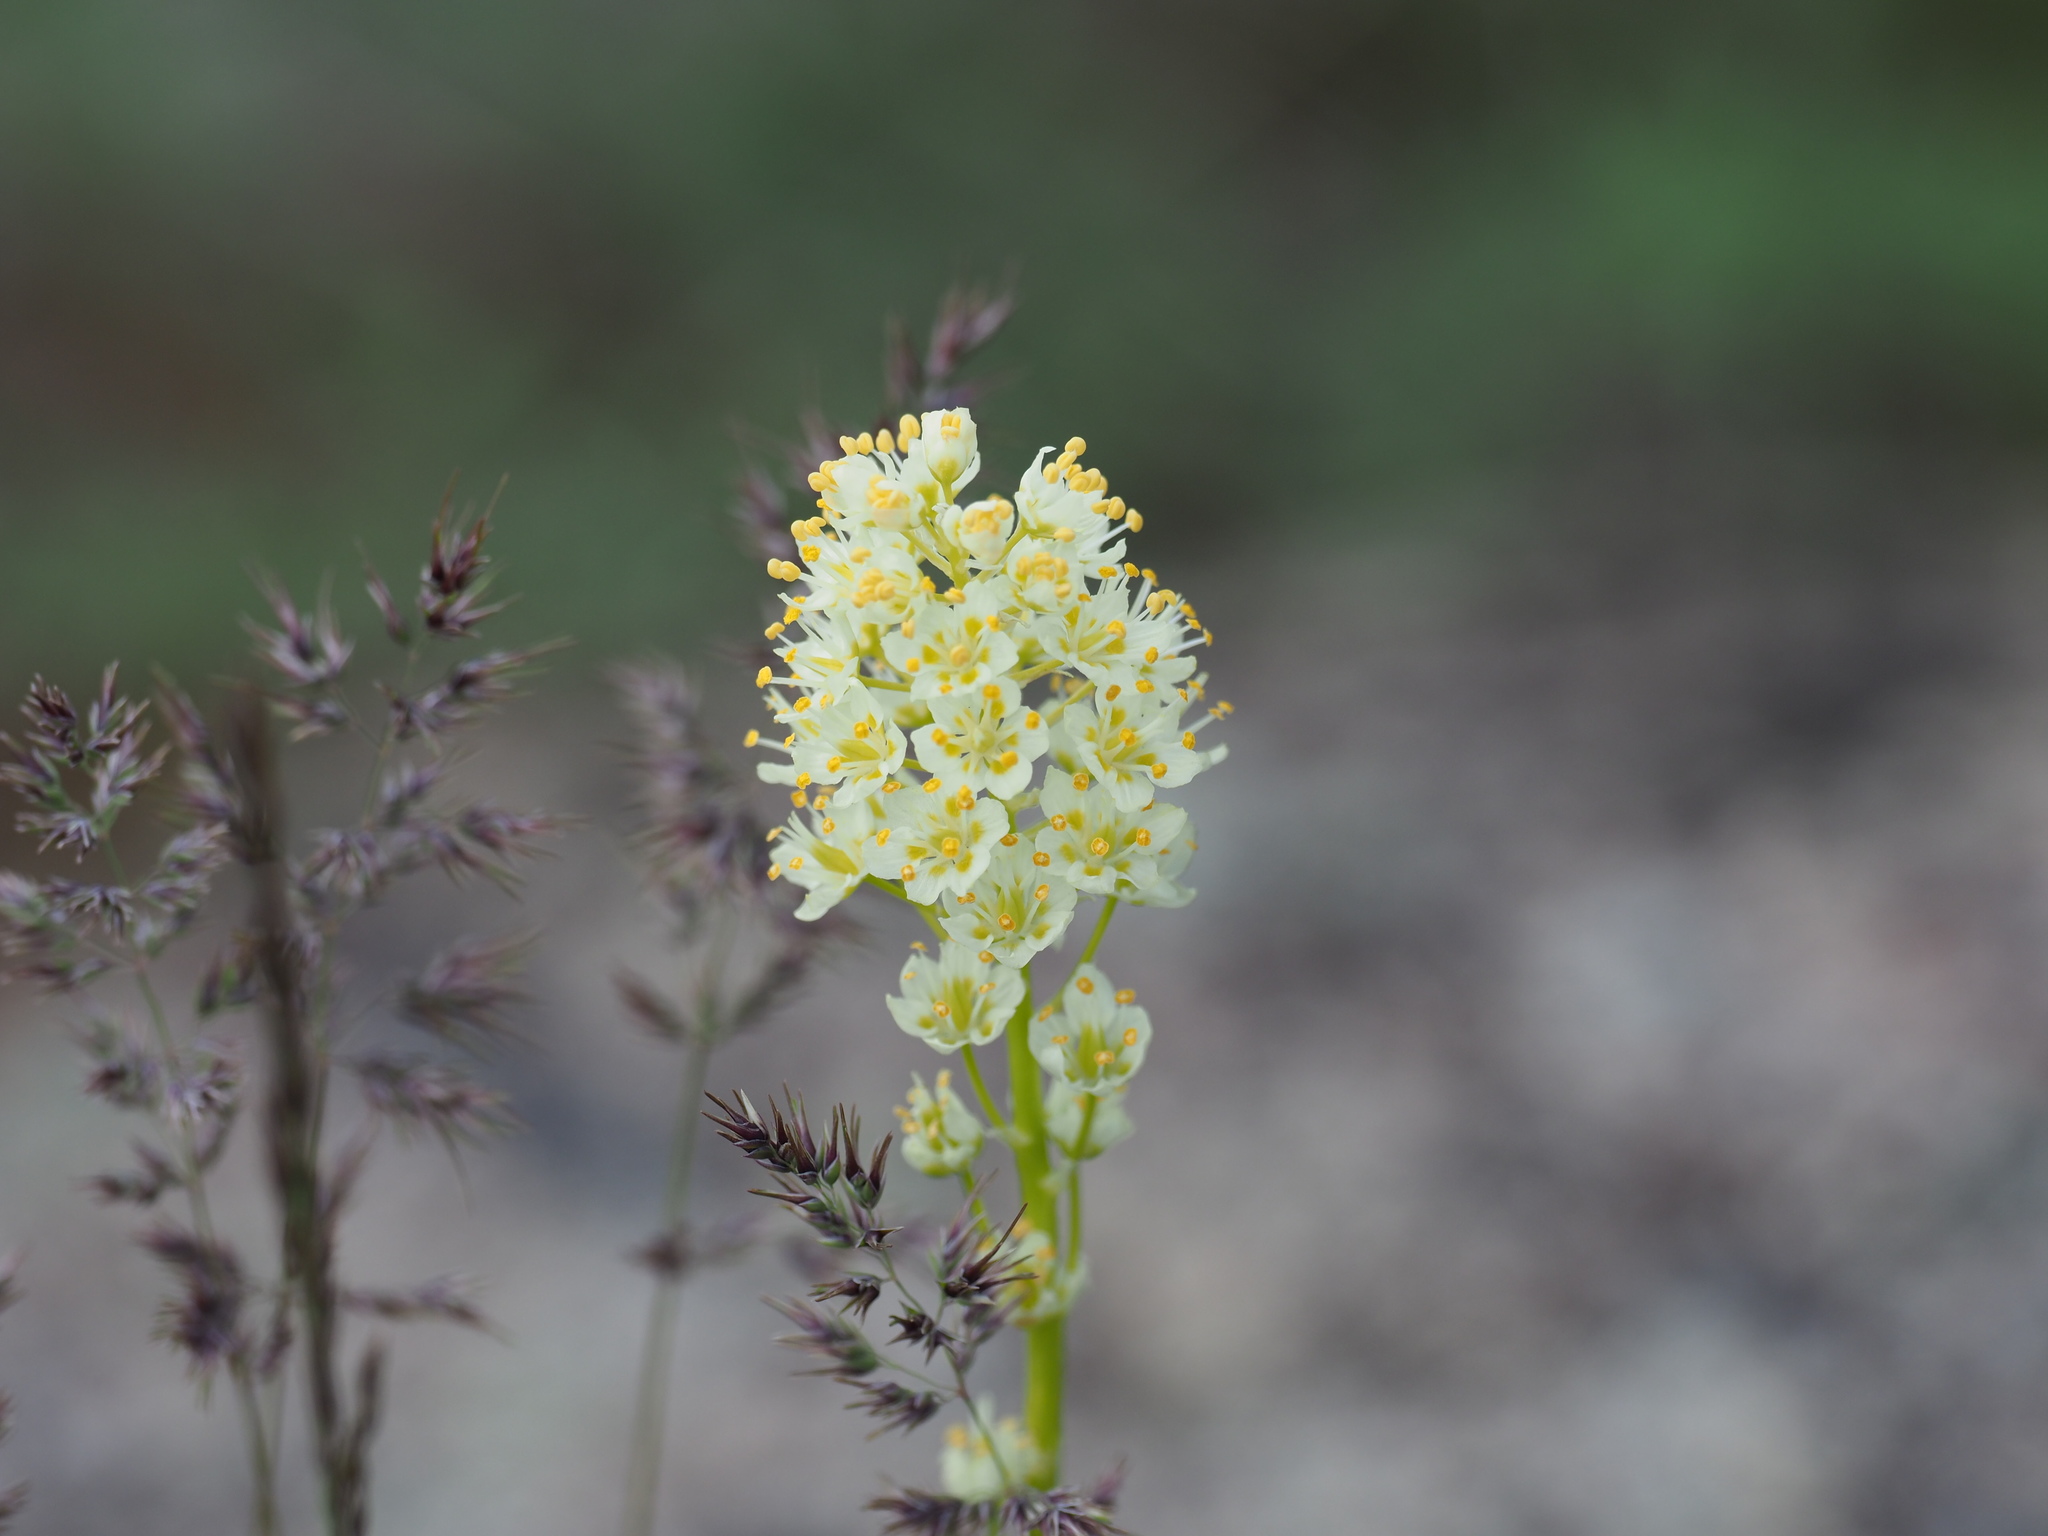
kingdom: Plantae
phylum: Tracheophyta
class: Liliopsida
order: Liliales
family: Melanthiaceae
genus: Toxicoscordion
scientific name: Toxicoscordion venenosum
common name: Meadow death camas
